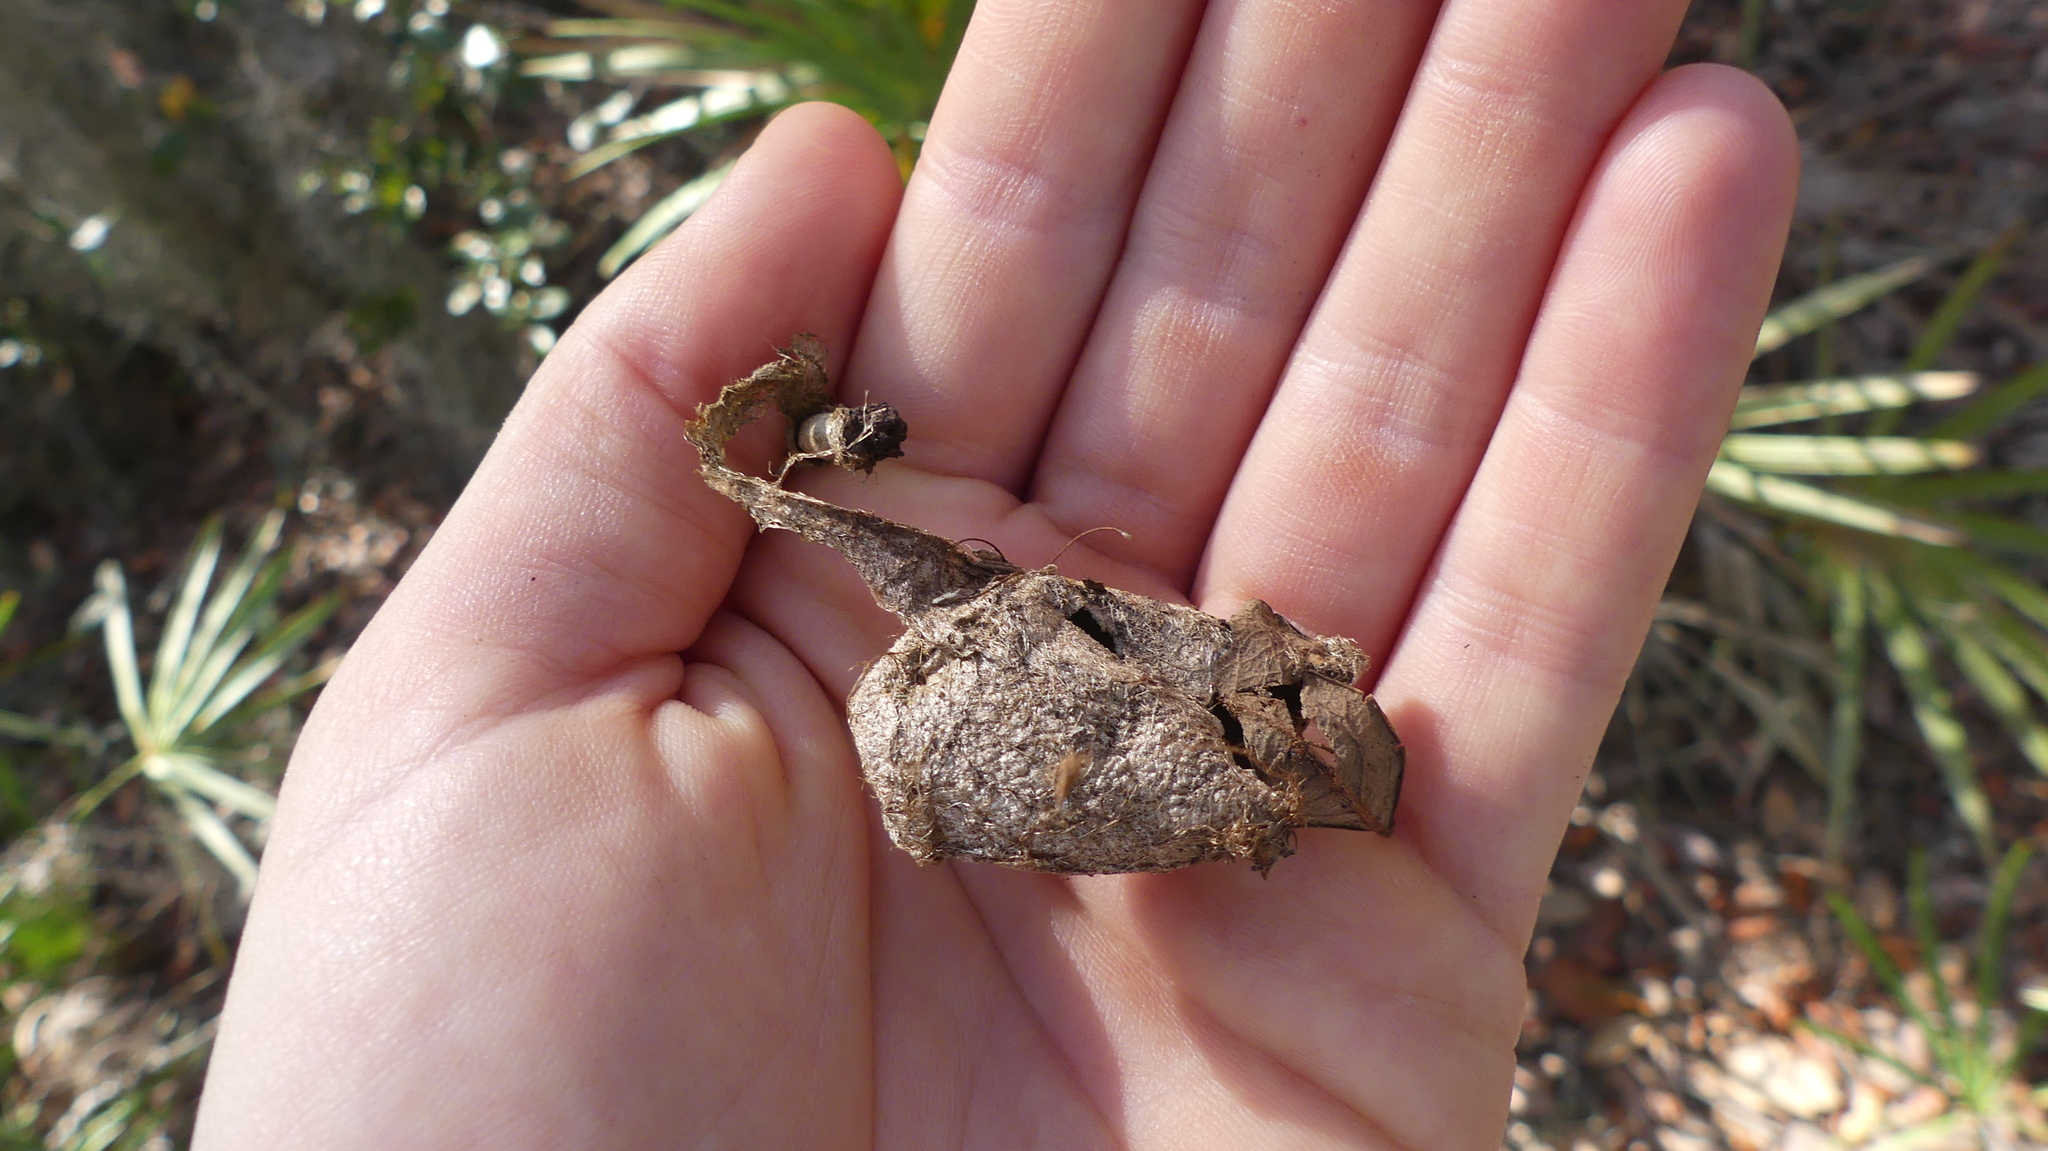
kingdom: Animalia
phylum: Arthropoda
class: Insecta
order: Lepidoptera
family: Saturniidae
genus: Antheraea
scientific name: Antheraea polyphemus
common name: Polyphemus moth
